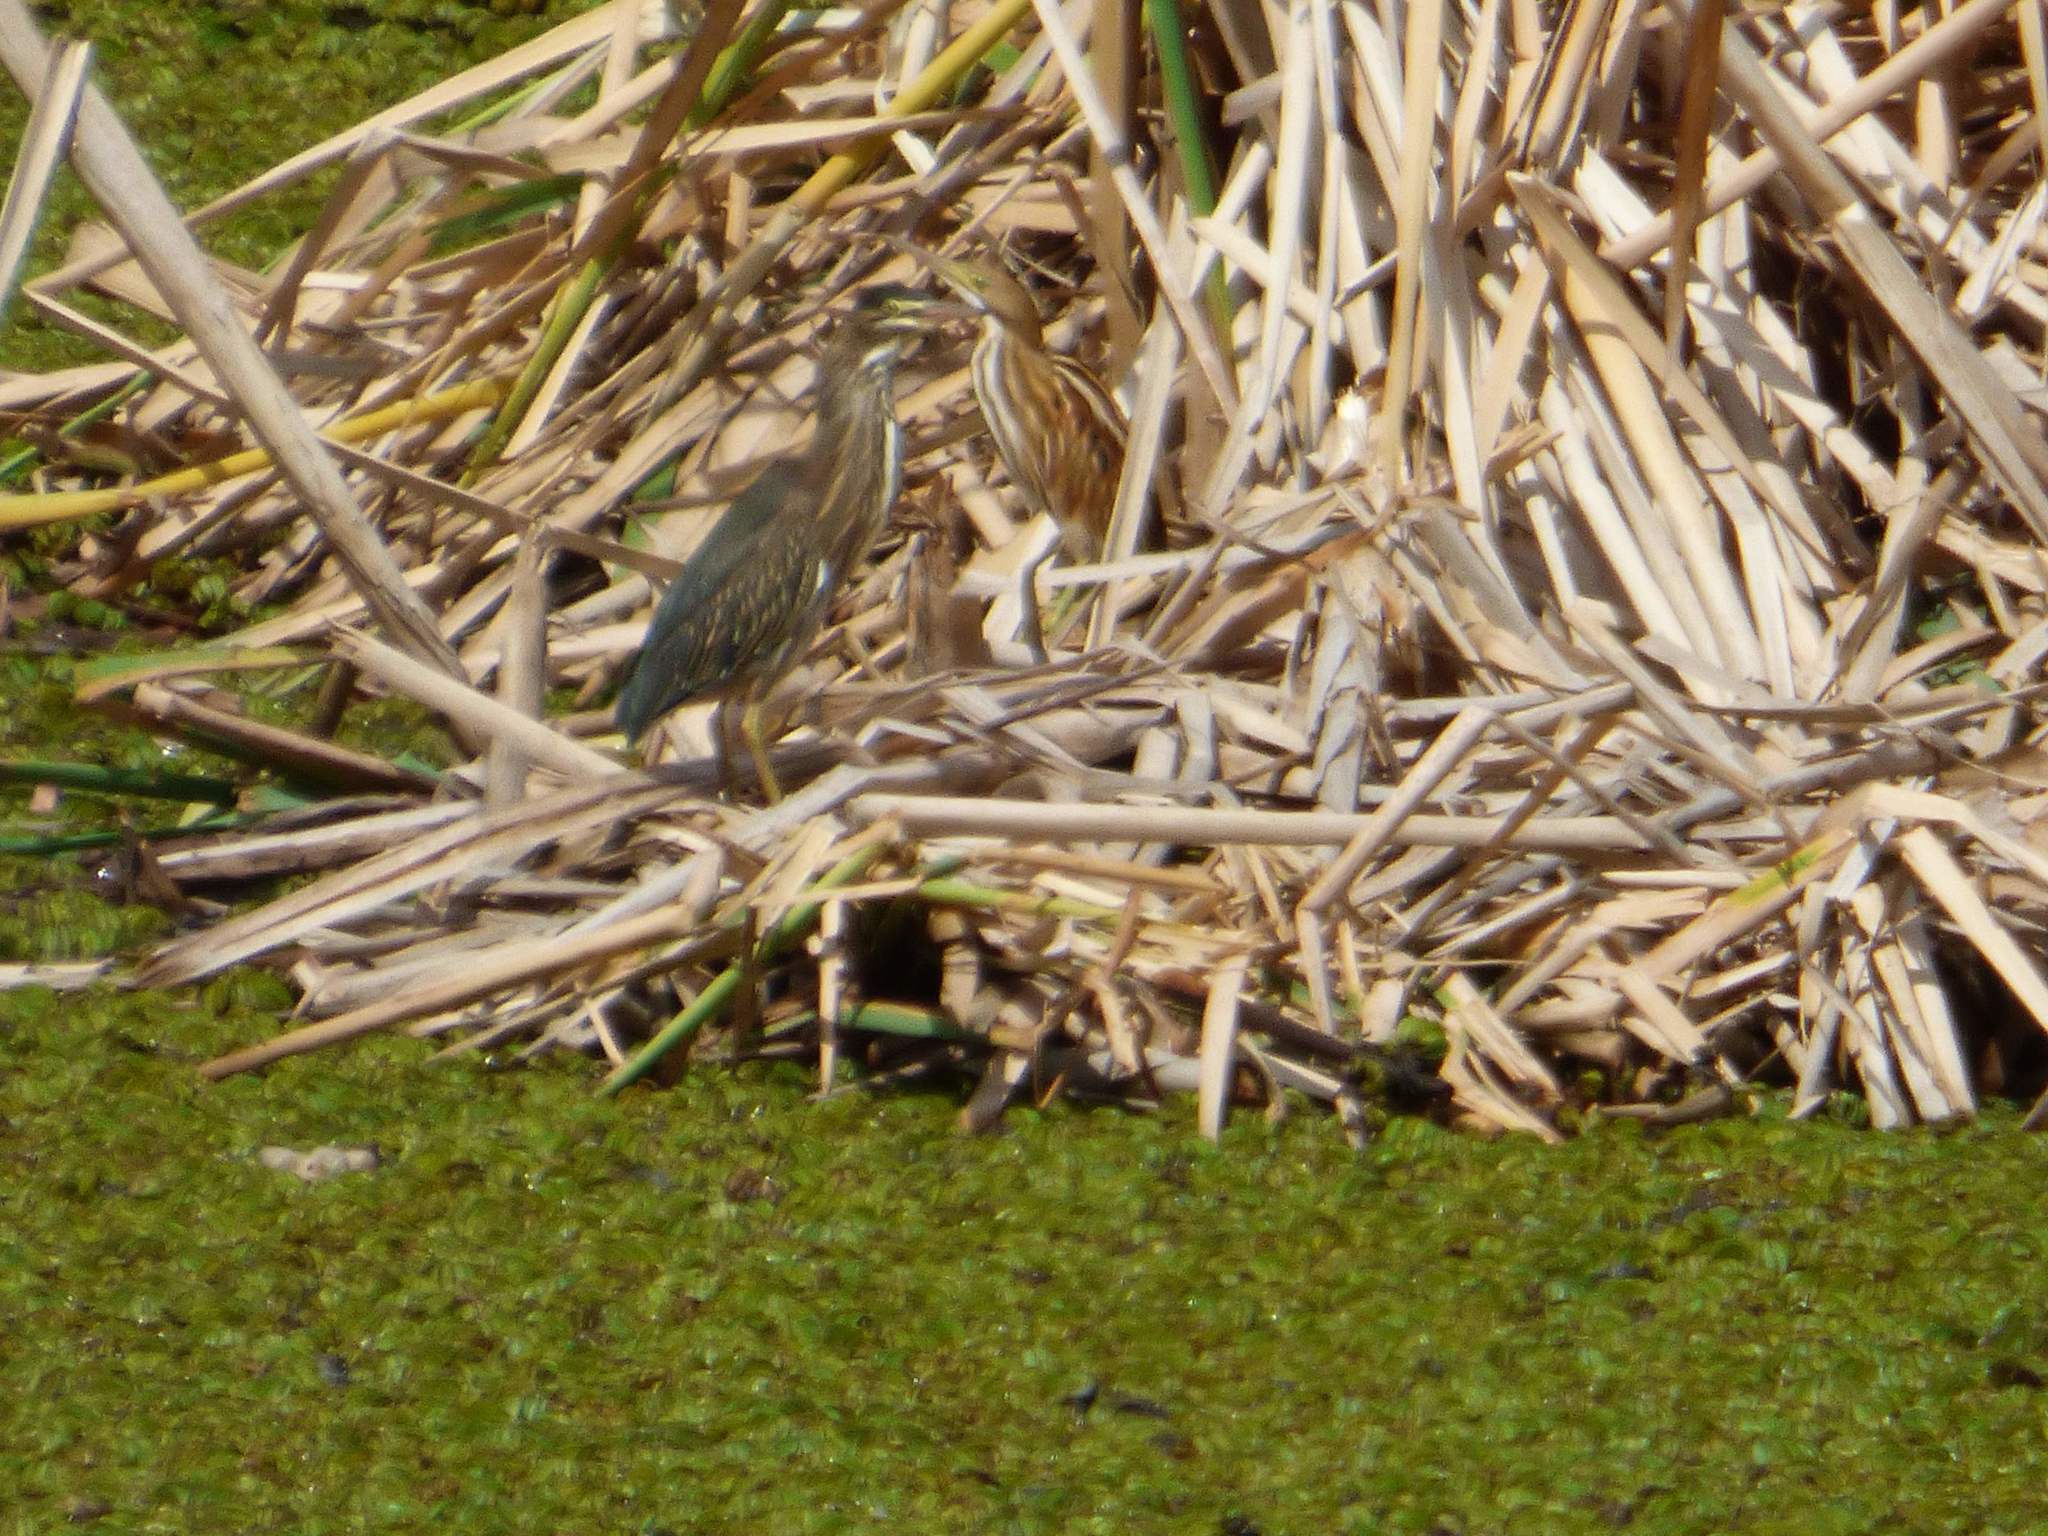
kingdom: Animalia
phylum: Chordata
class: Aves
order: Pelecaniformes
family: Ardeidae
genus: Butorides
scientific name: Butorides striata
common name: Striated heron
